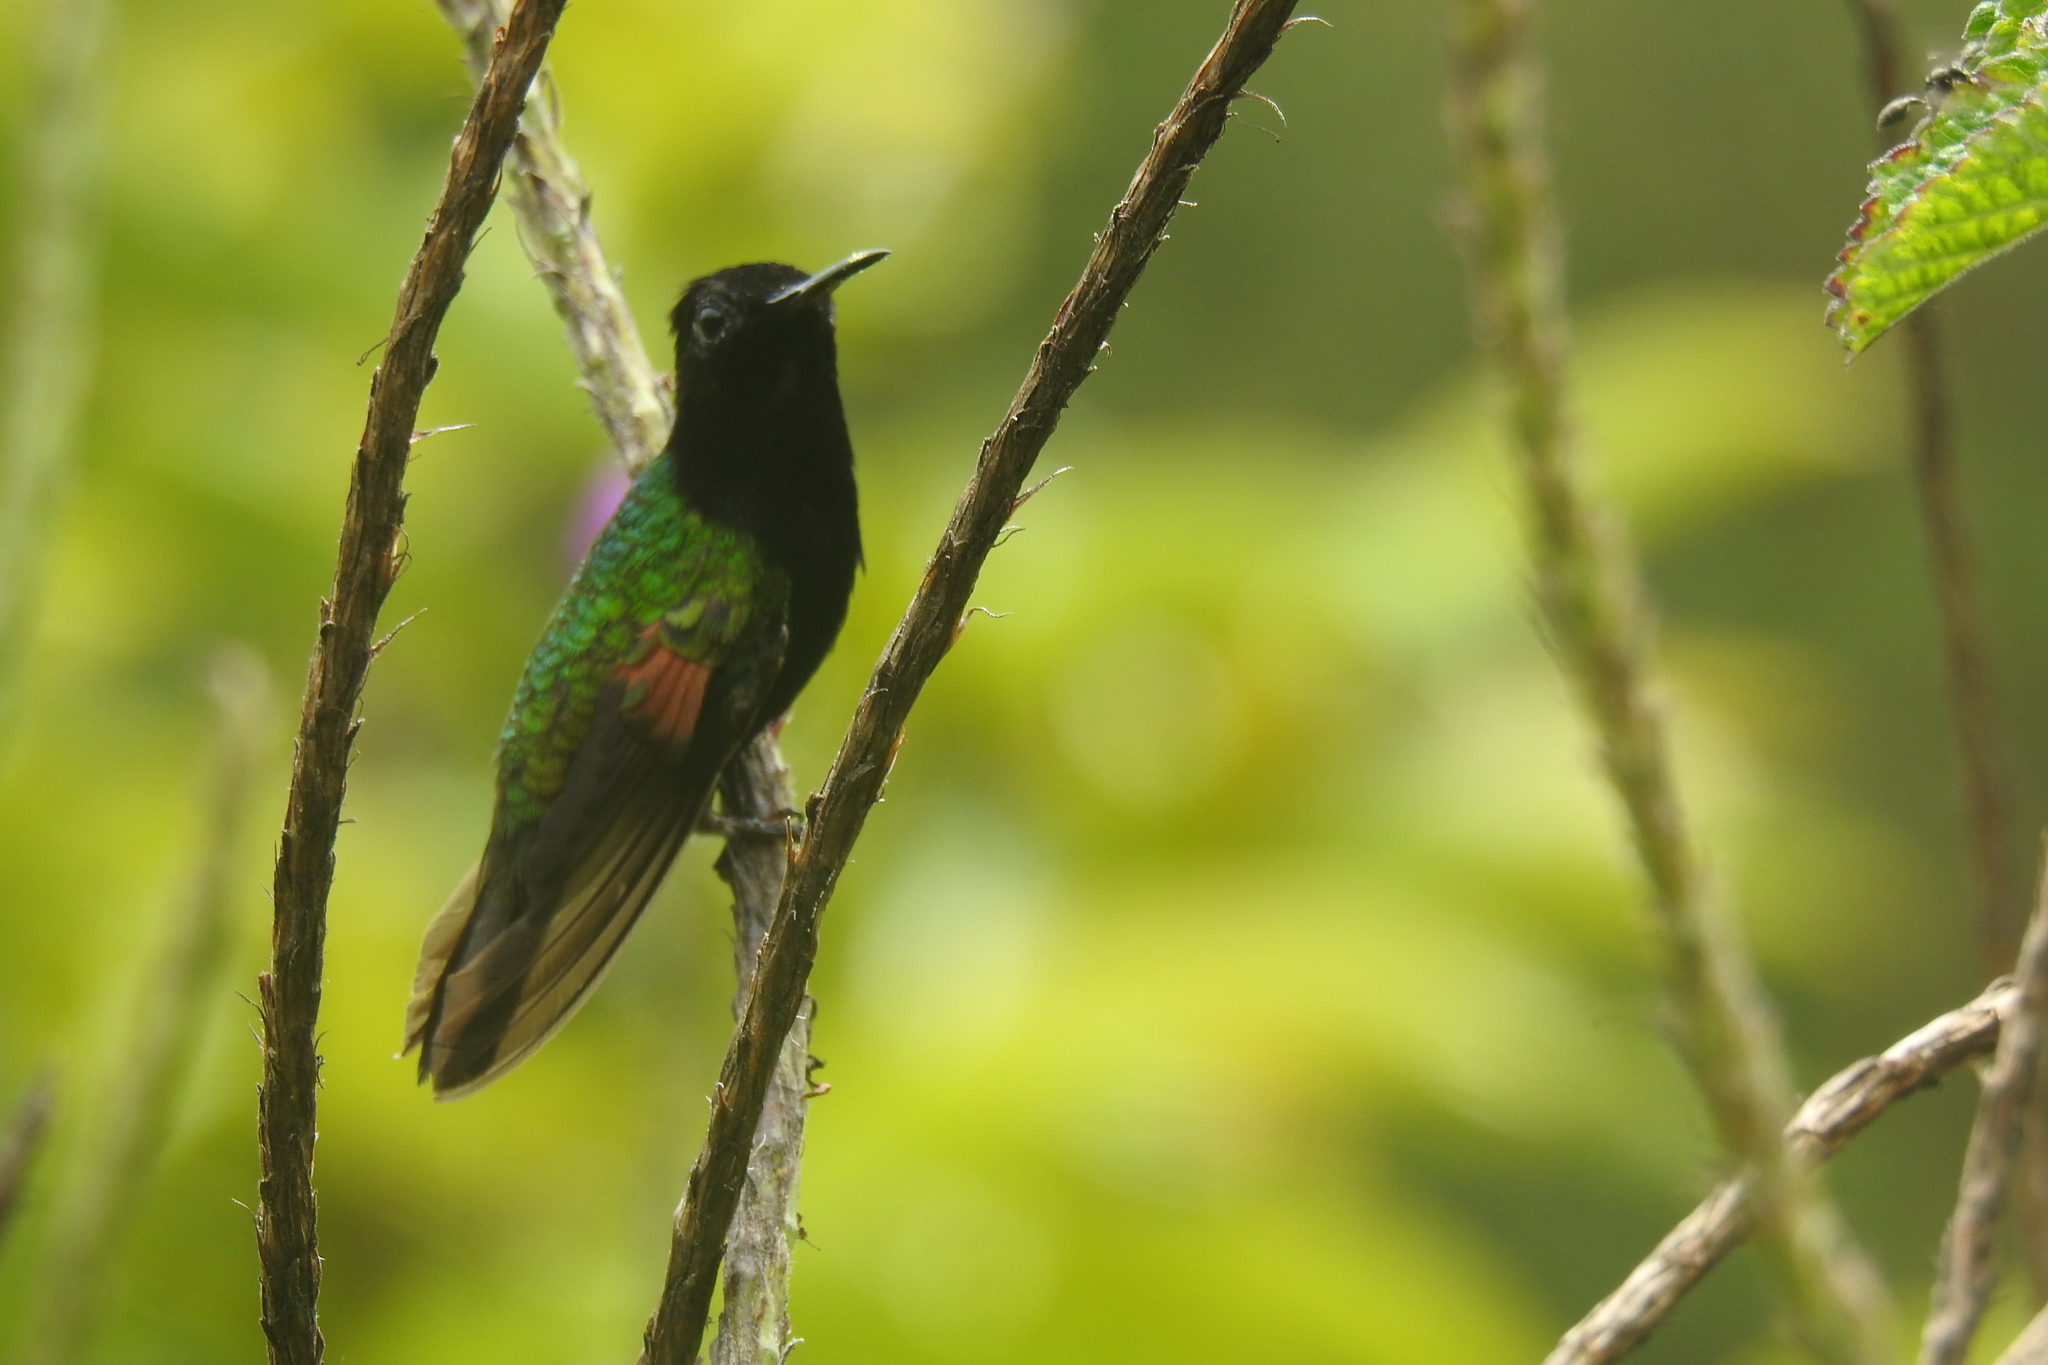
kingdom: Animalia
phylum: Chordata
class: Aves
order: Apodiformes
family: Trochilidae
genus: Eupherusa
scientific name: Eupherusa nigriventris
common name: Black-bellied hummingbird
